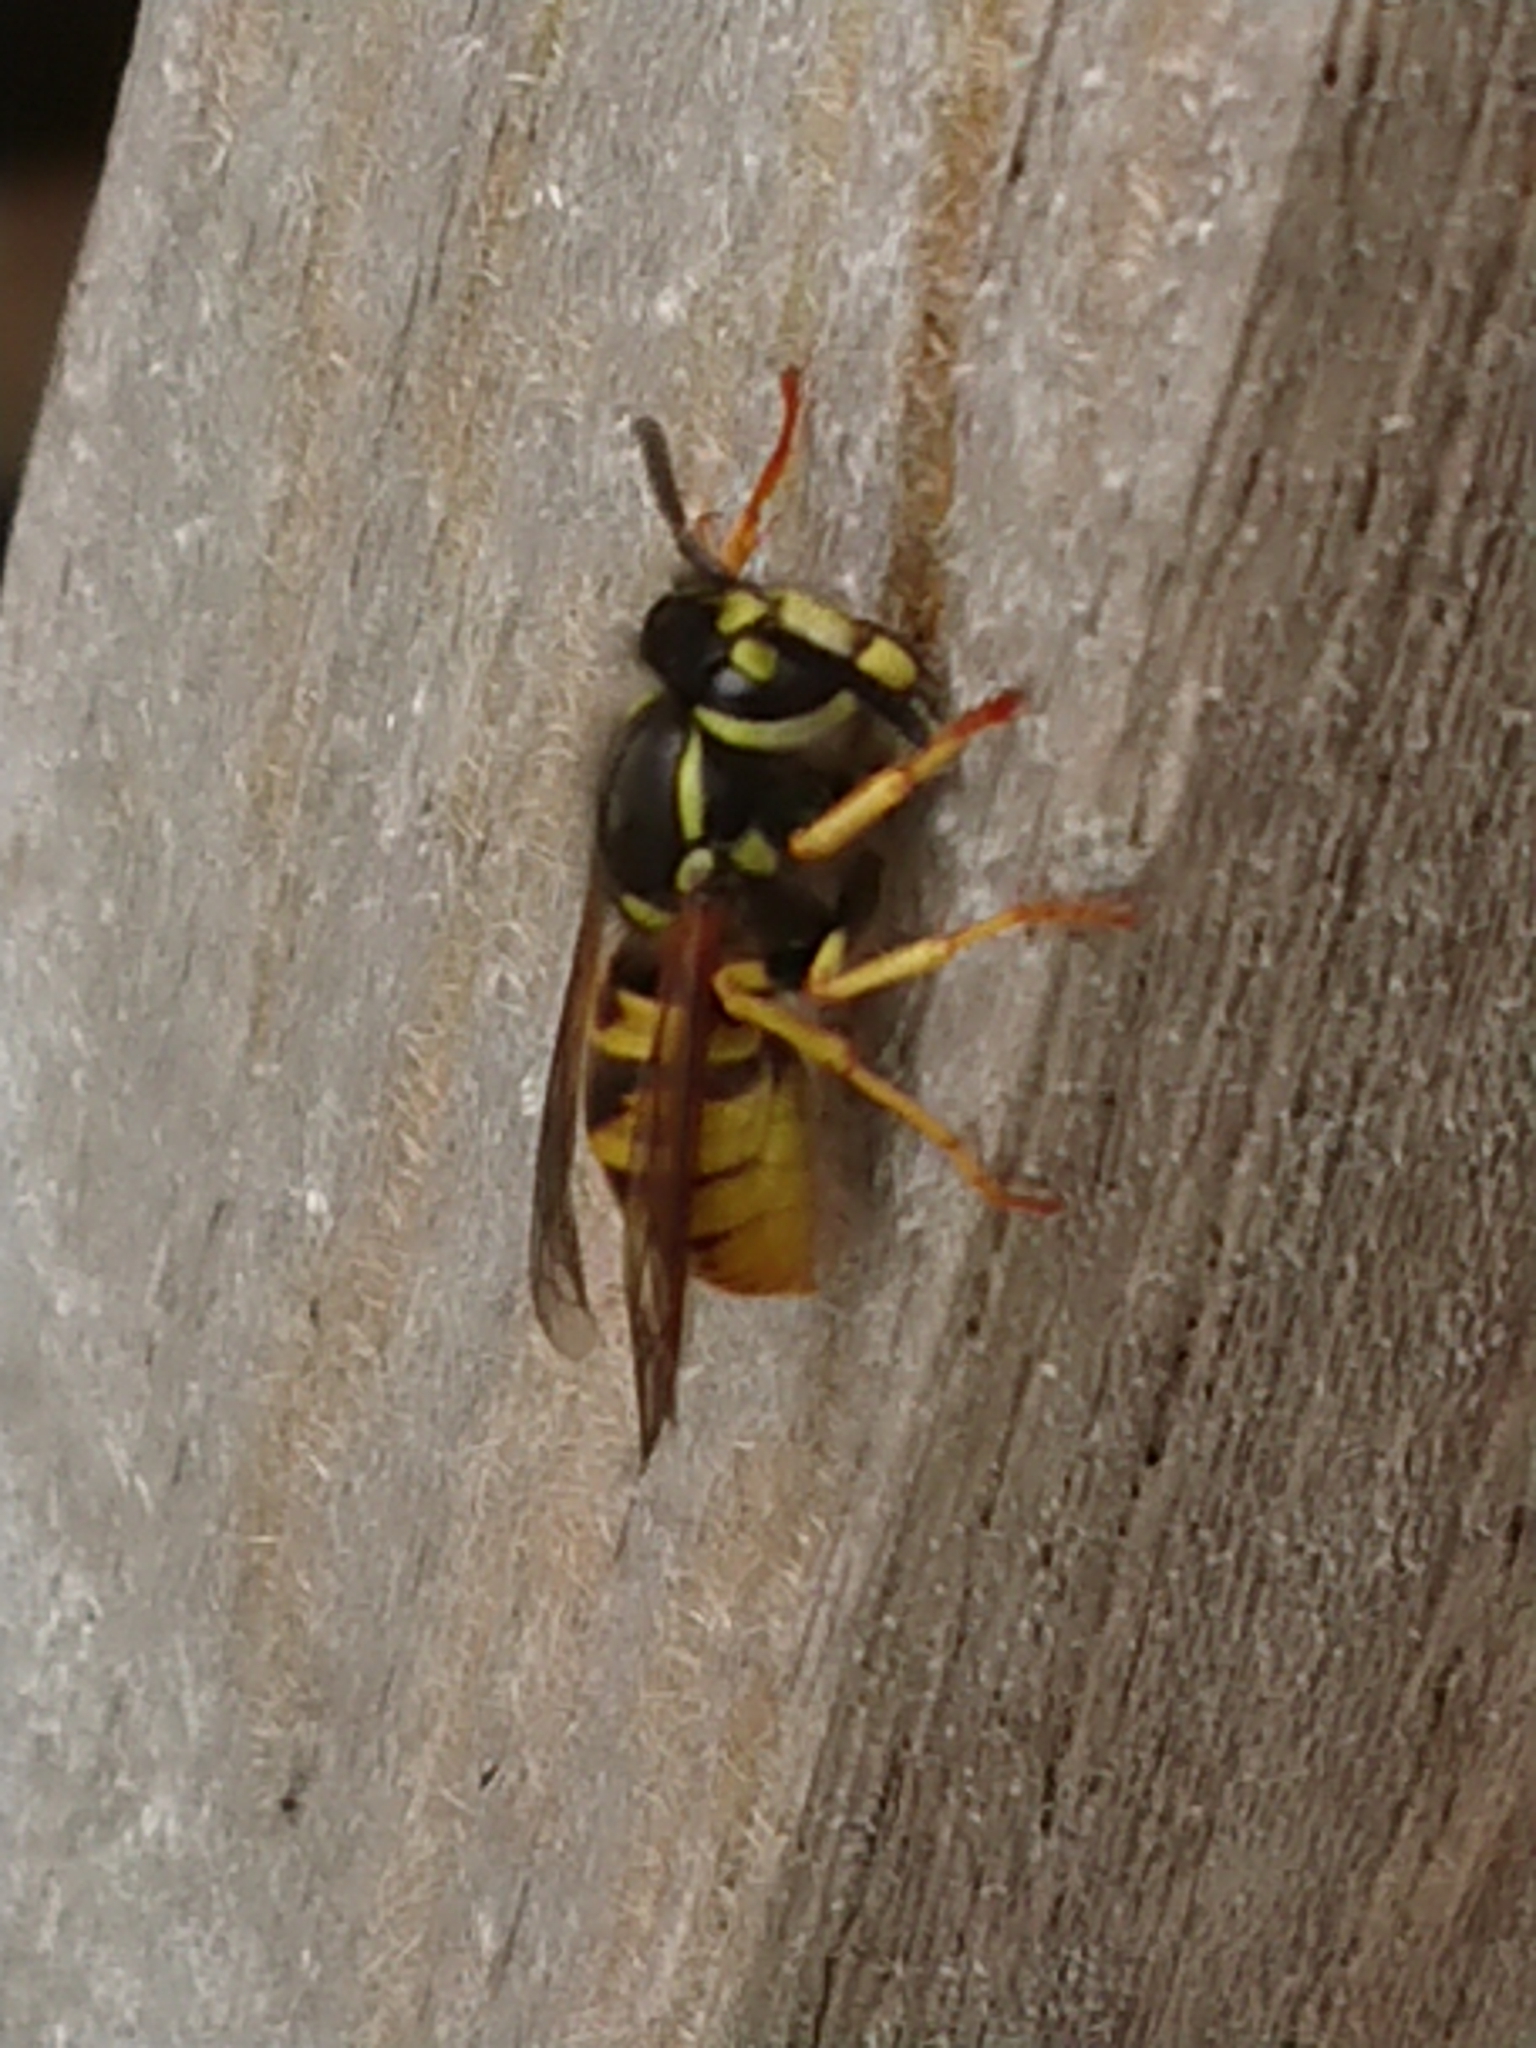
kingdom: Animalia
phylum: Arthropoda
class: Insecta
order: Hymenoptera
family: Vespidae
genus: Vespula
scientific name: Vespula germanica
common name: German wasp
